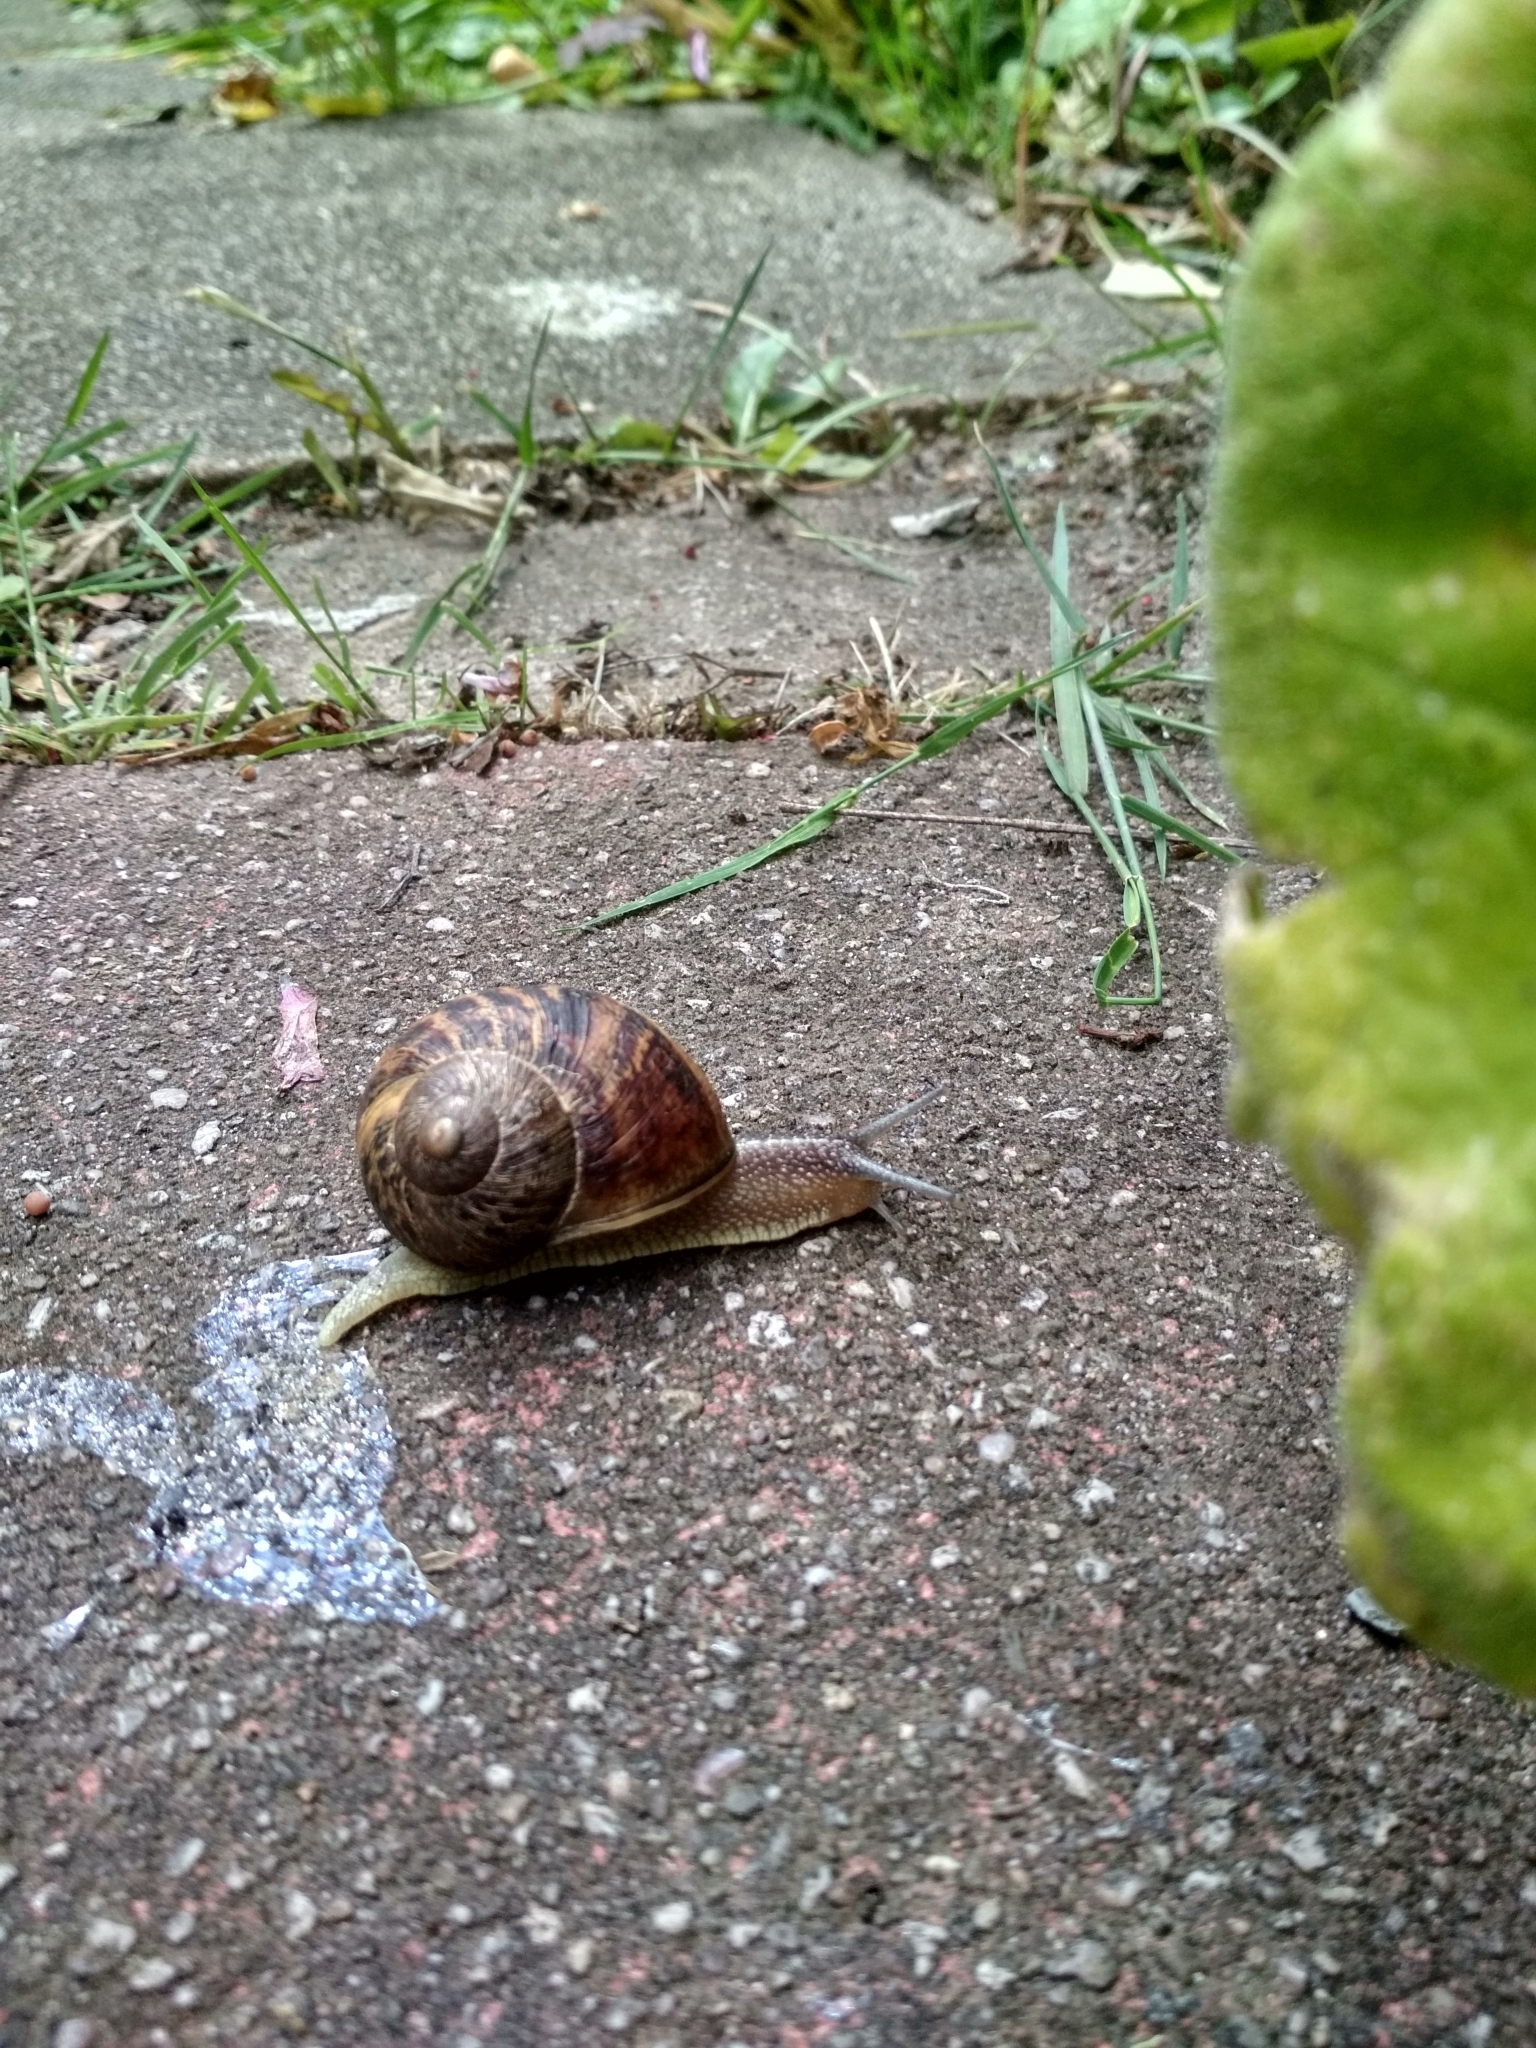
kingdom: Animalia
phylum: Mollusca
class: Gastropoda
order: Stylommatophora
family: Helicidae
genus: Cornu
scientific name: Cornu aspersum
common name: Brown garden snail
